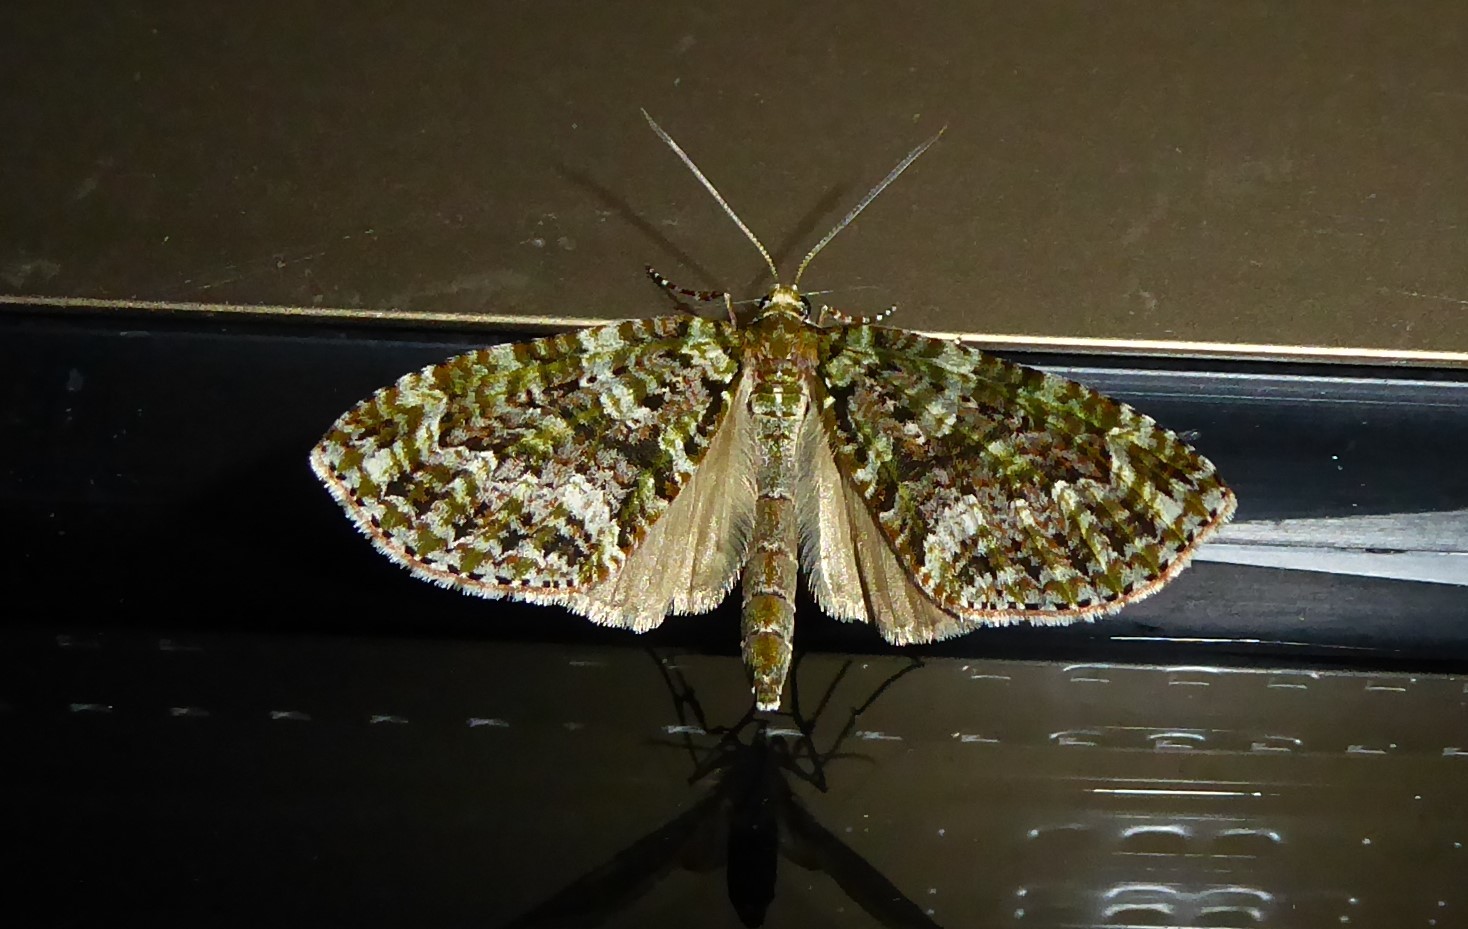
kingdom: Animalia
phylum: Arthropoda
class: Insecta
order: Lepidoptera
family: Geometridae
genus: Tatosoma
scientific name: Tatosoma agrionata
